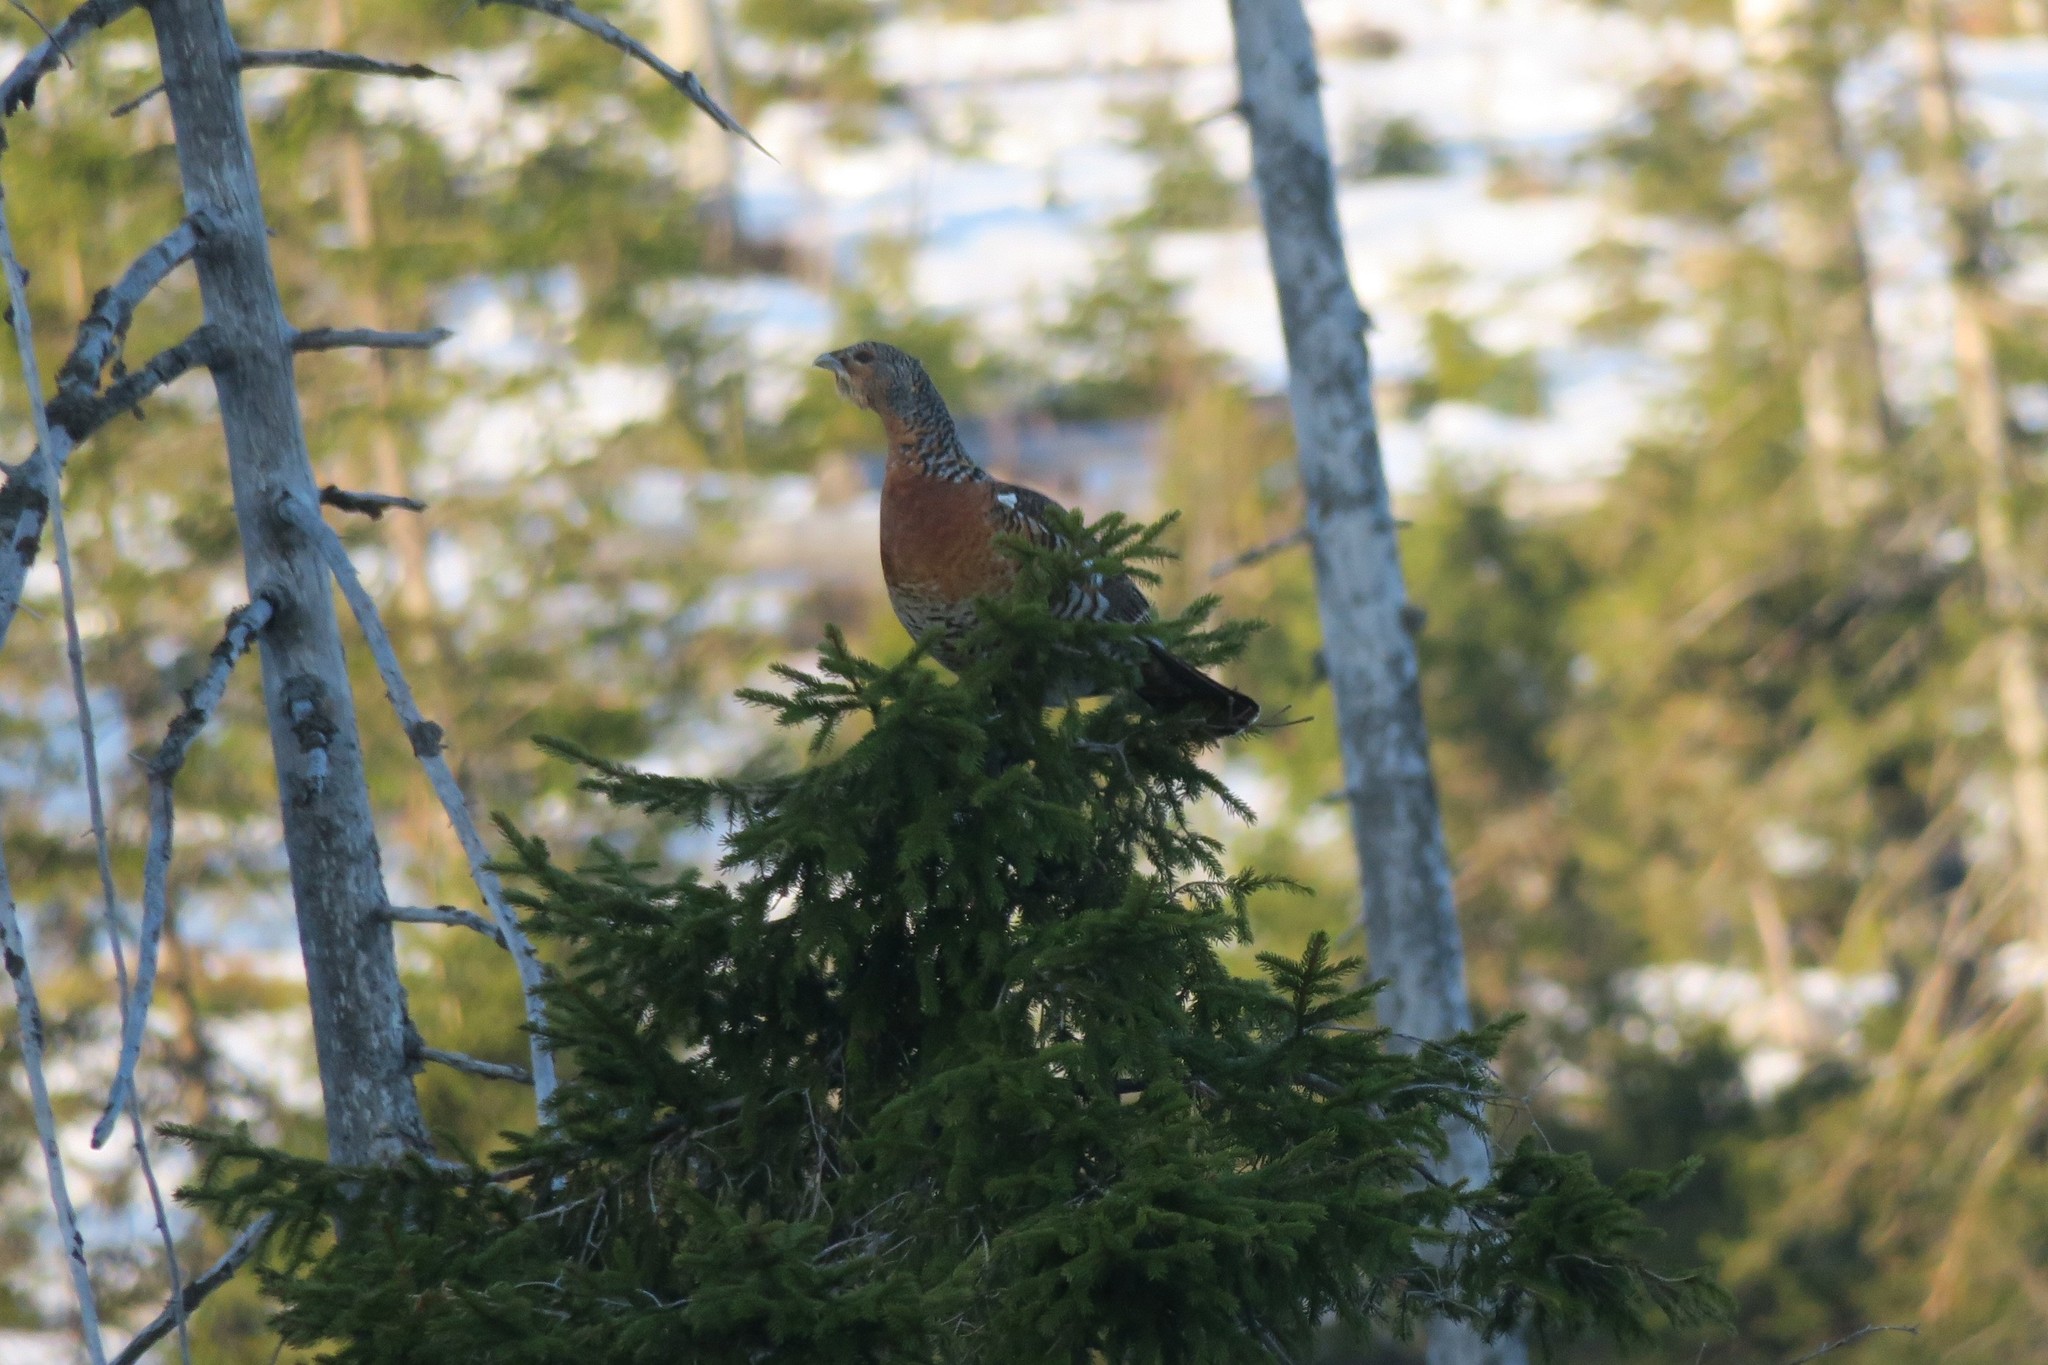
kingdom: Animalia
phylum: Chordata
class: Aves
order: Galliformes
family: Phasianidae
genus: Tetrao
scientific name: Tetrao urogallus
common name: Western capercaillie
